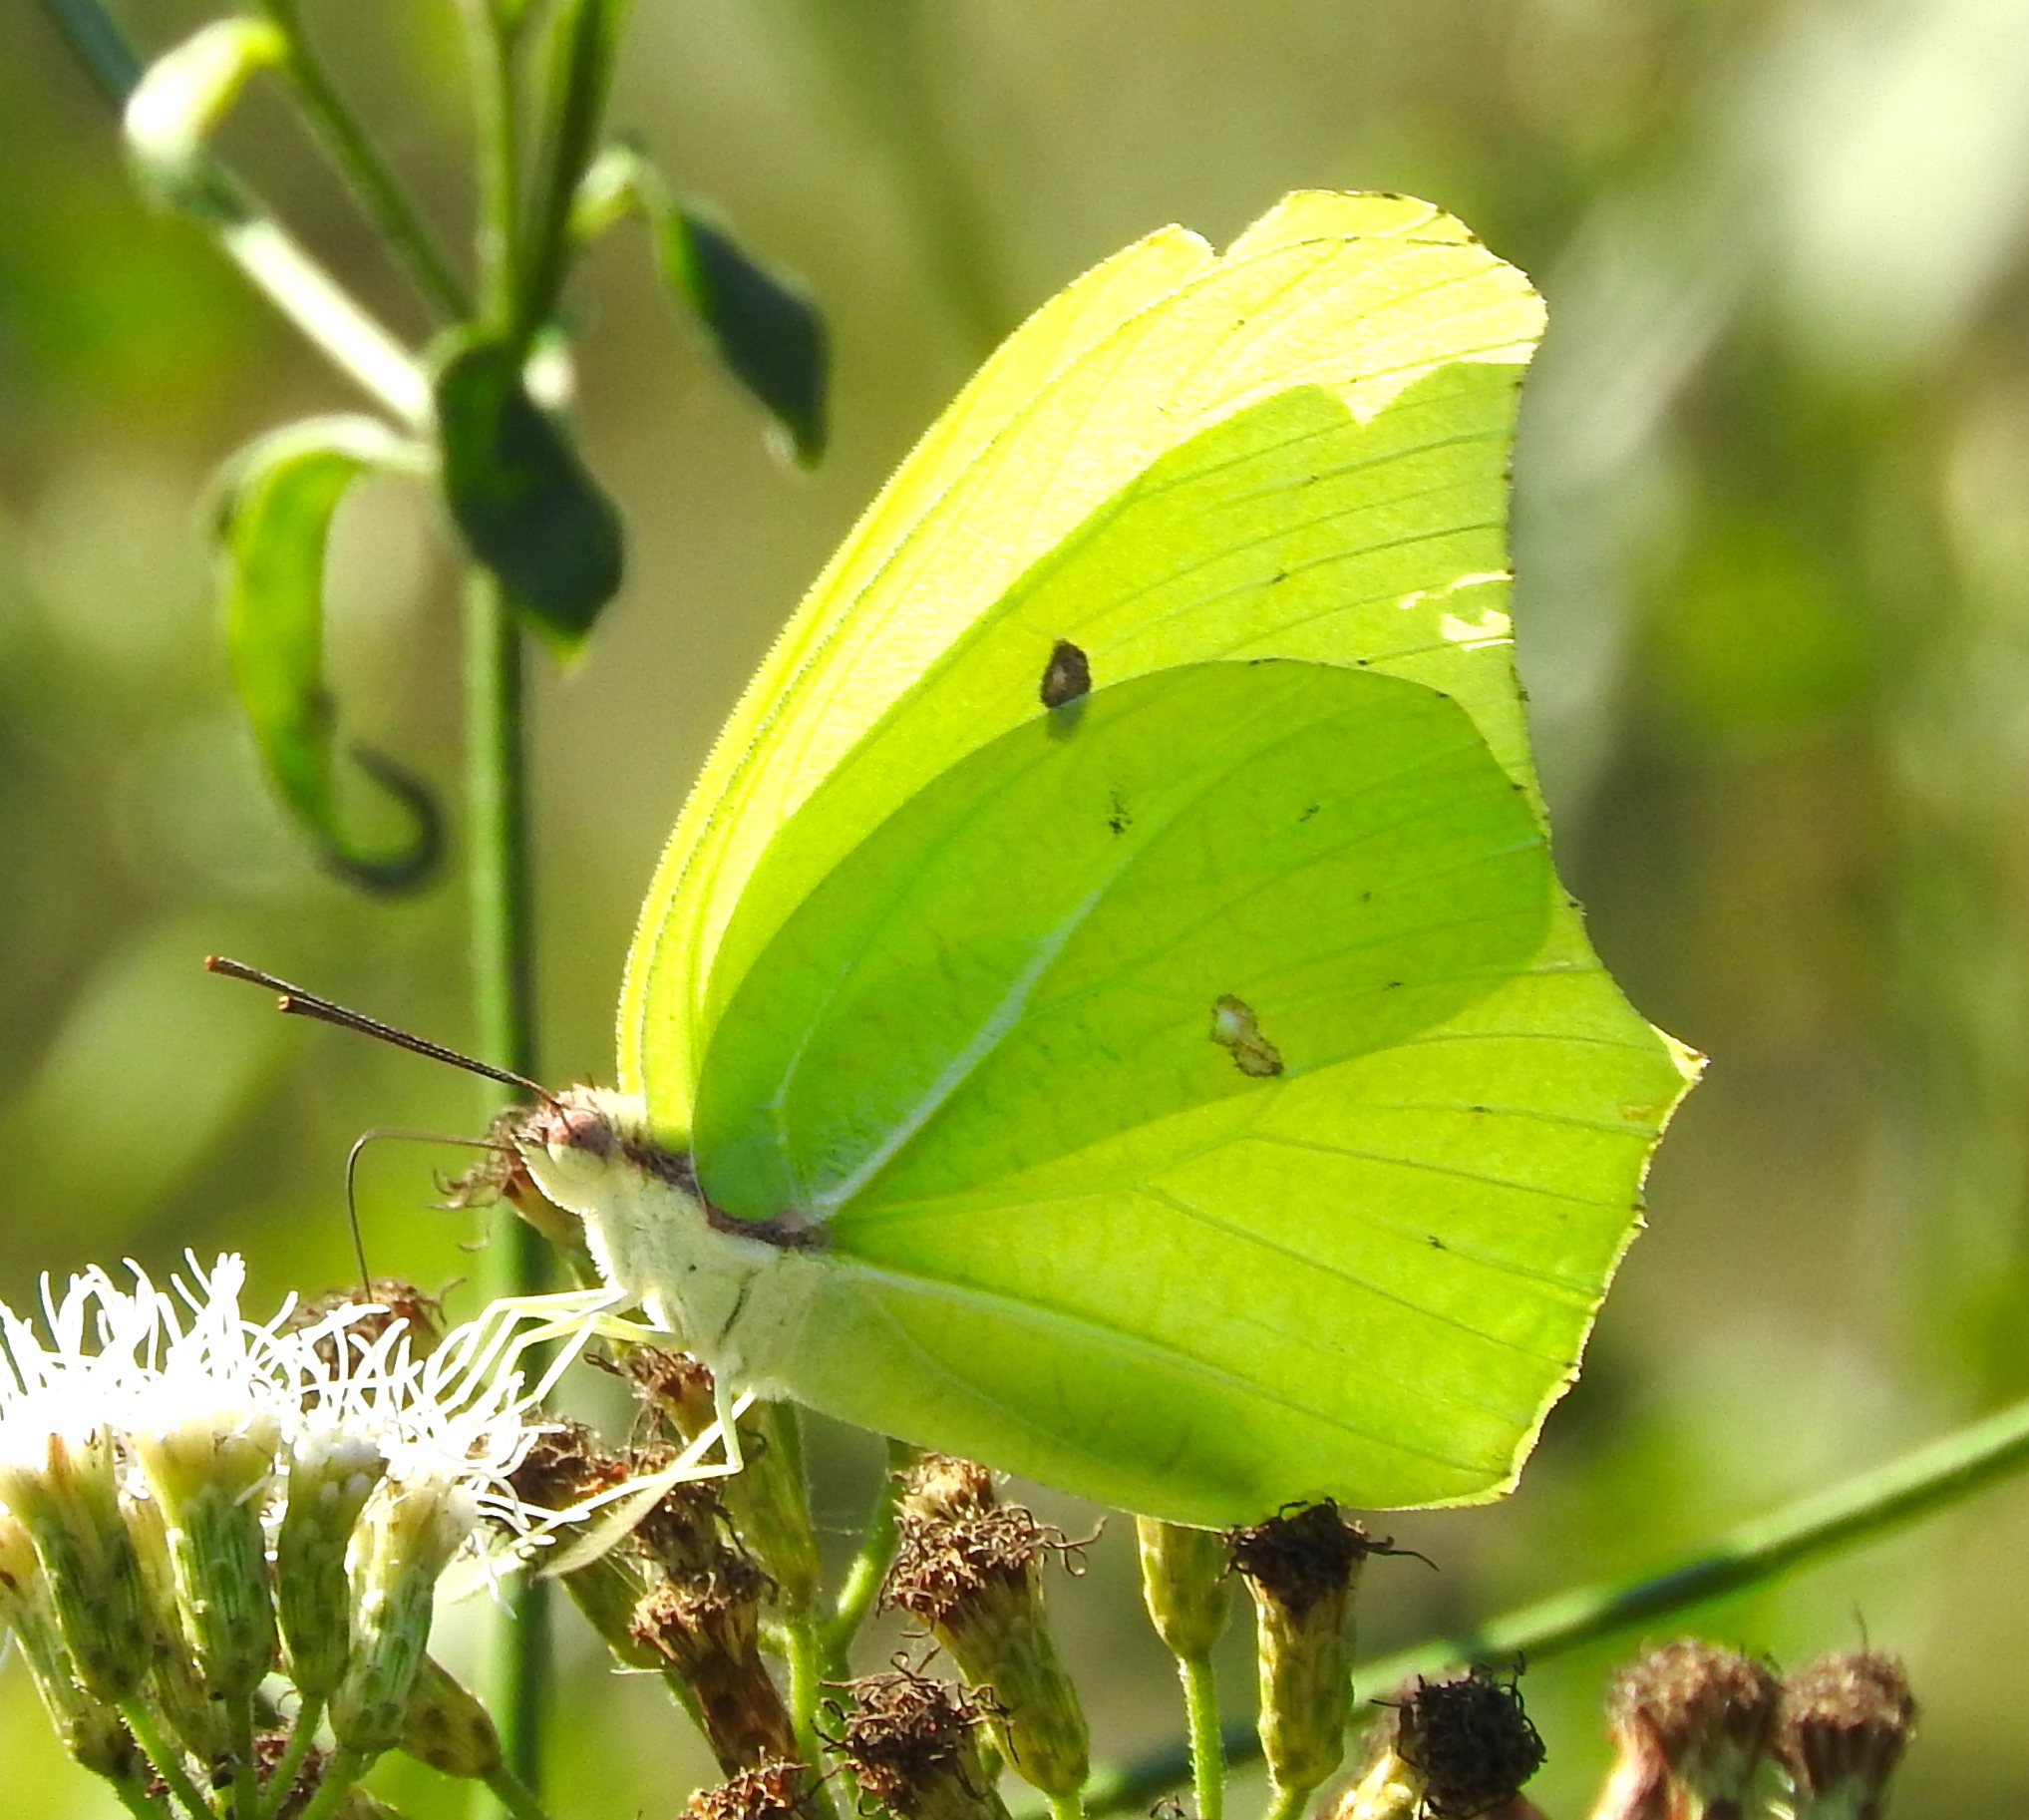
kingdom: Animalia
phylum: Arthropoda
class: Insecta
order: Lepidoptera
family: Pieridae
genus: Anteos
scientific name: Anteos maerula
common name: Angled sulphur
